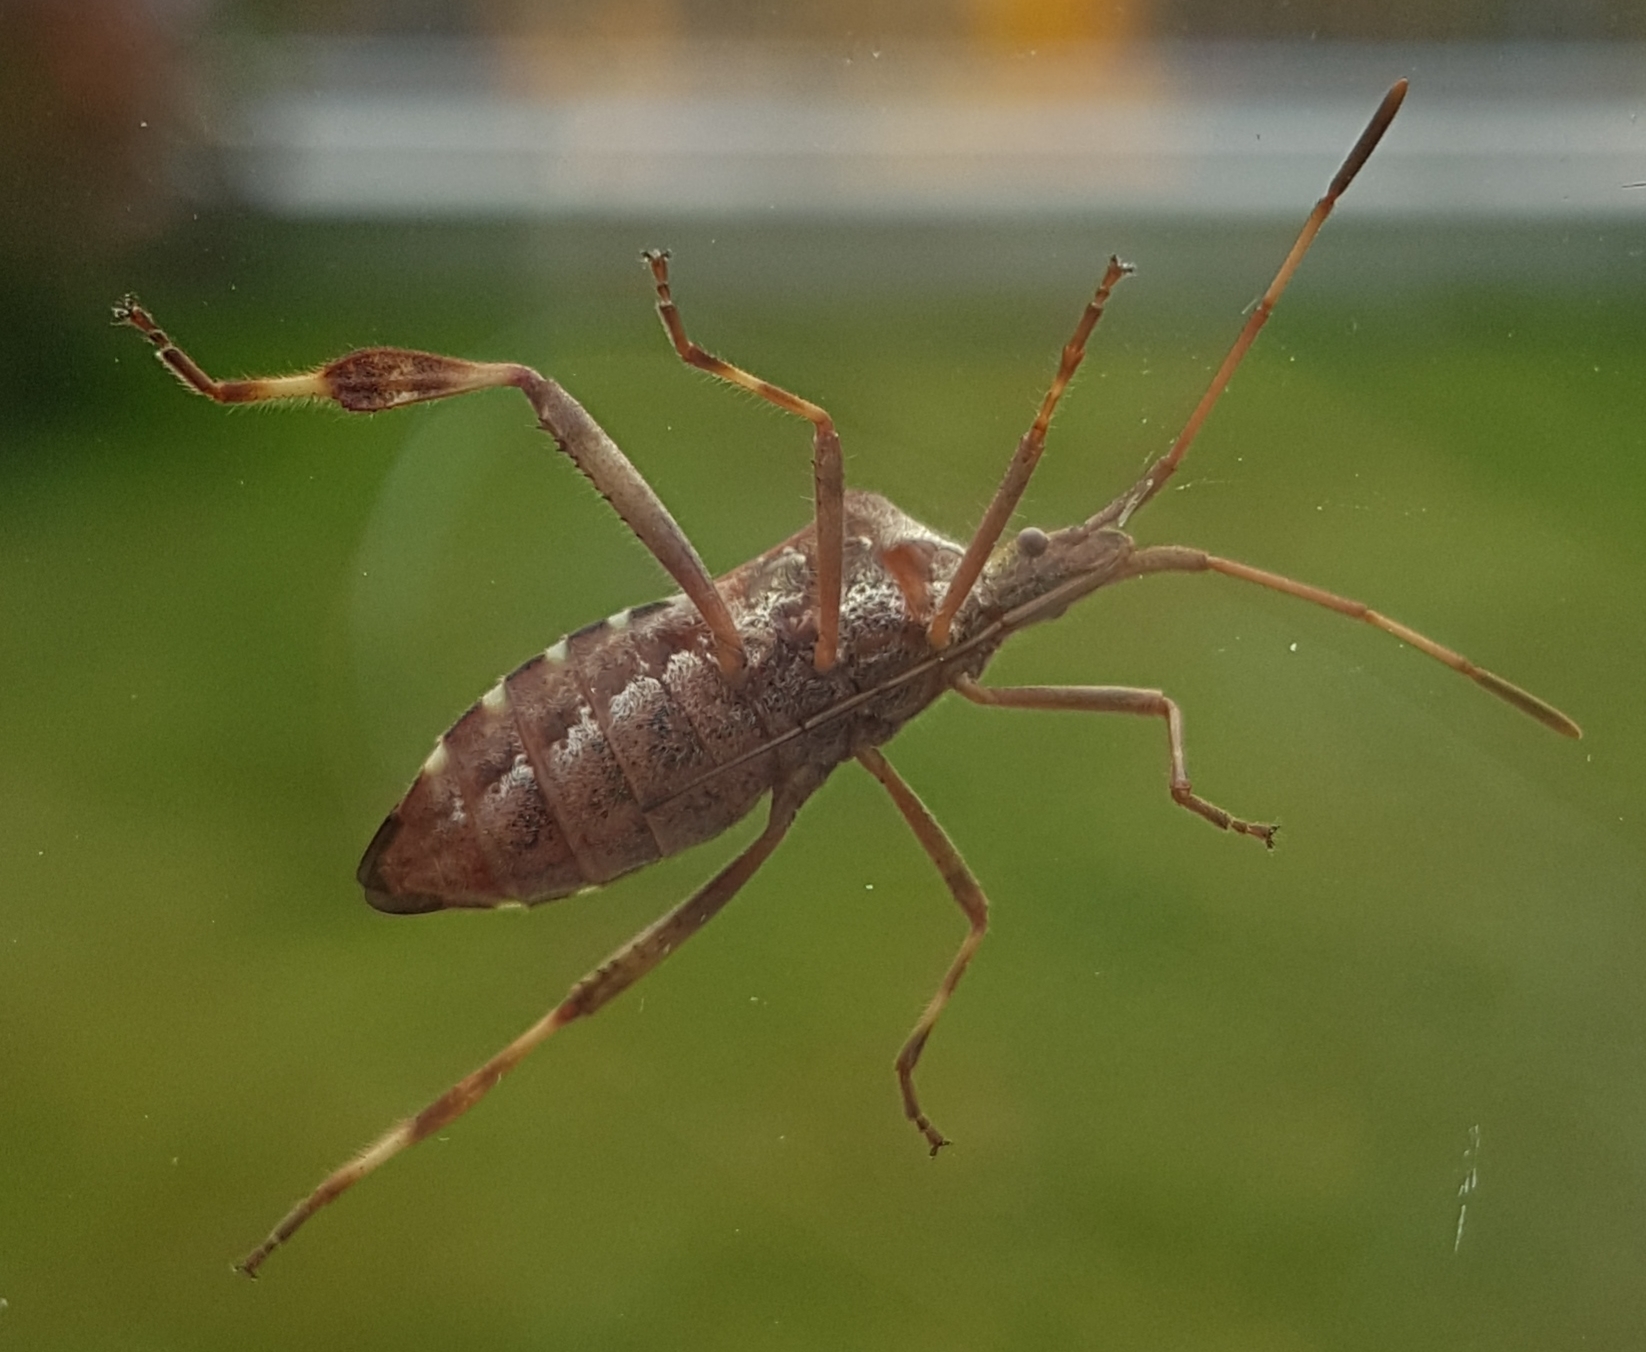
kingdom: Animalia
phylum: Arthropoda
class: Insecta
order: Hemiptera
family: Coreidae
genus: Leptoglossus
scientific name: Leptoglossus occidentalis
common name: Western conifer-seed bug
